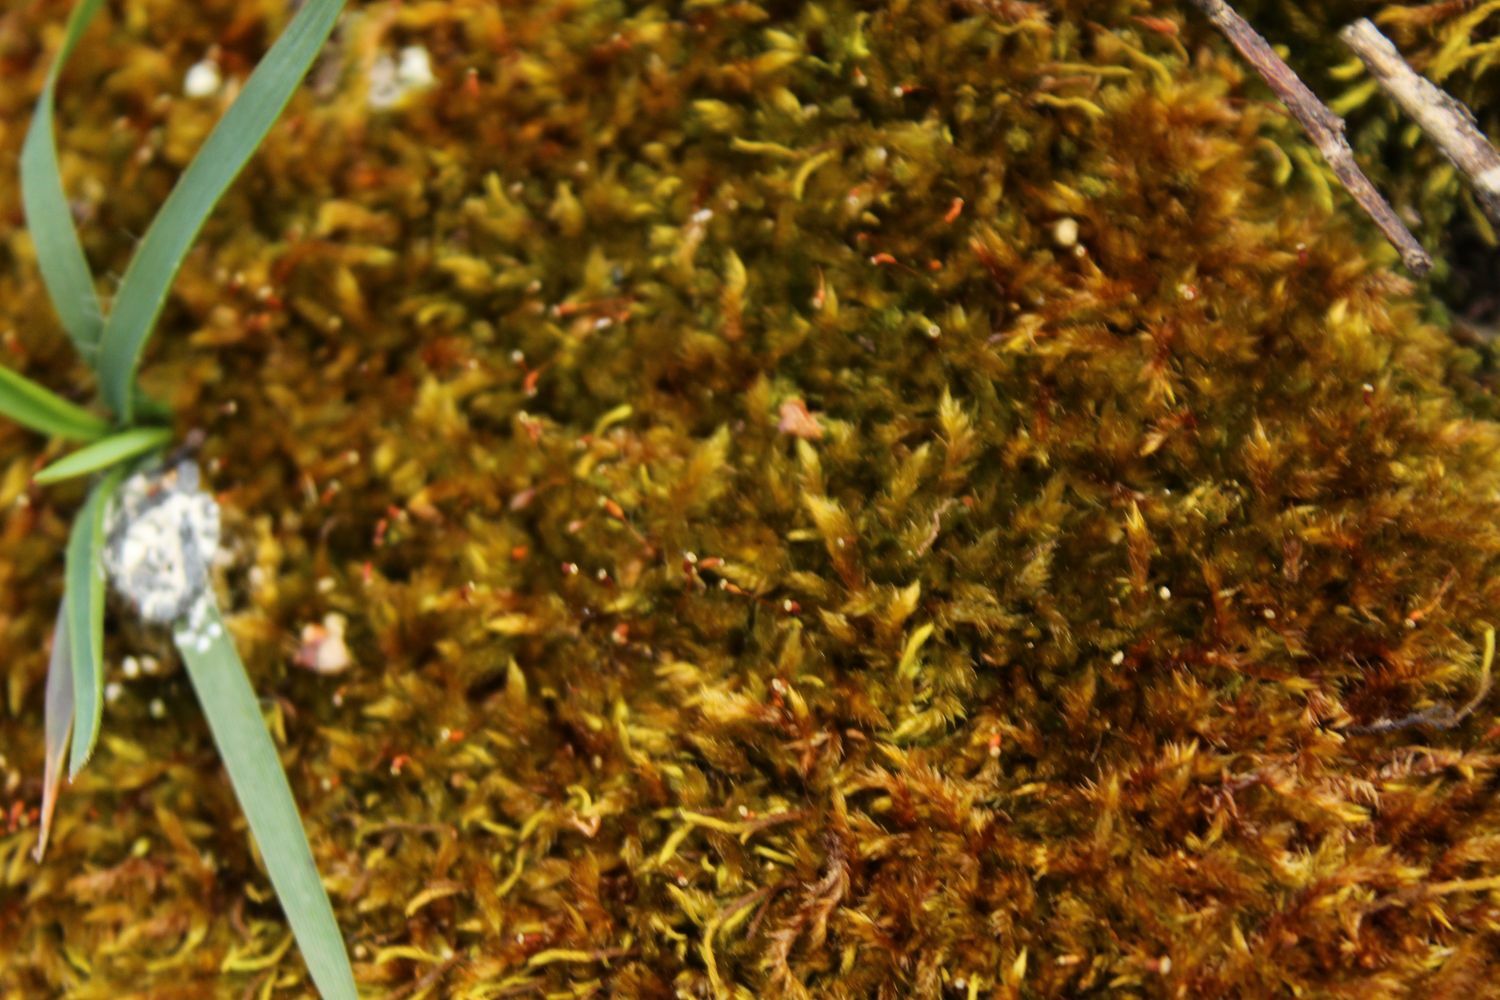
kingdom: Plantae
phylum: Bryophyta
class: Bryopsida
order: Hypnales
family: Sematophyllaceae
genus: Sematophyllum
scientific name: Sematophyllum homomallum
